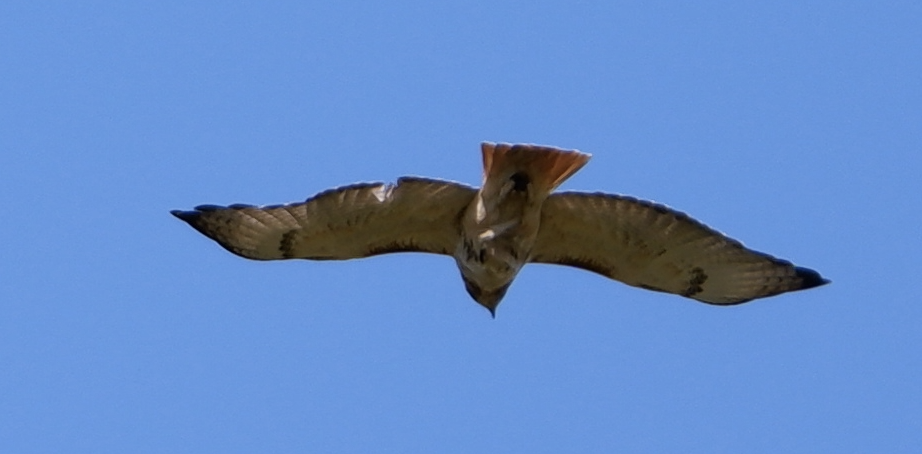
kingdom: Animalia
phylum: Chordata
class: Aves
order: Accipitriformes
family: Accipitridae
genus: Buteo
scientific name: Buteo jamaicensis
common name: Red-tailed hawk
